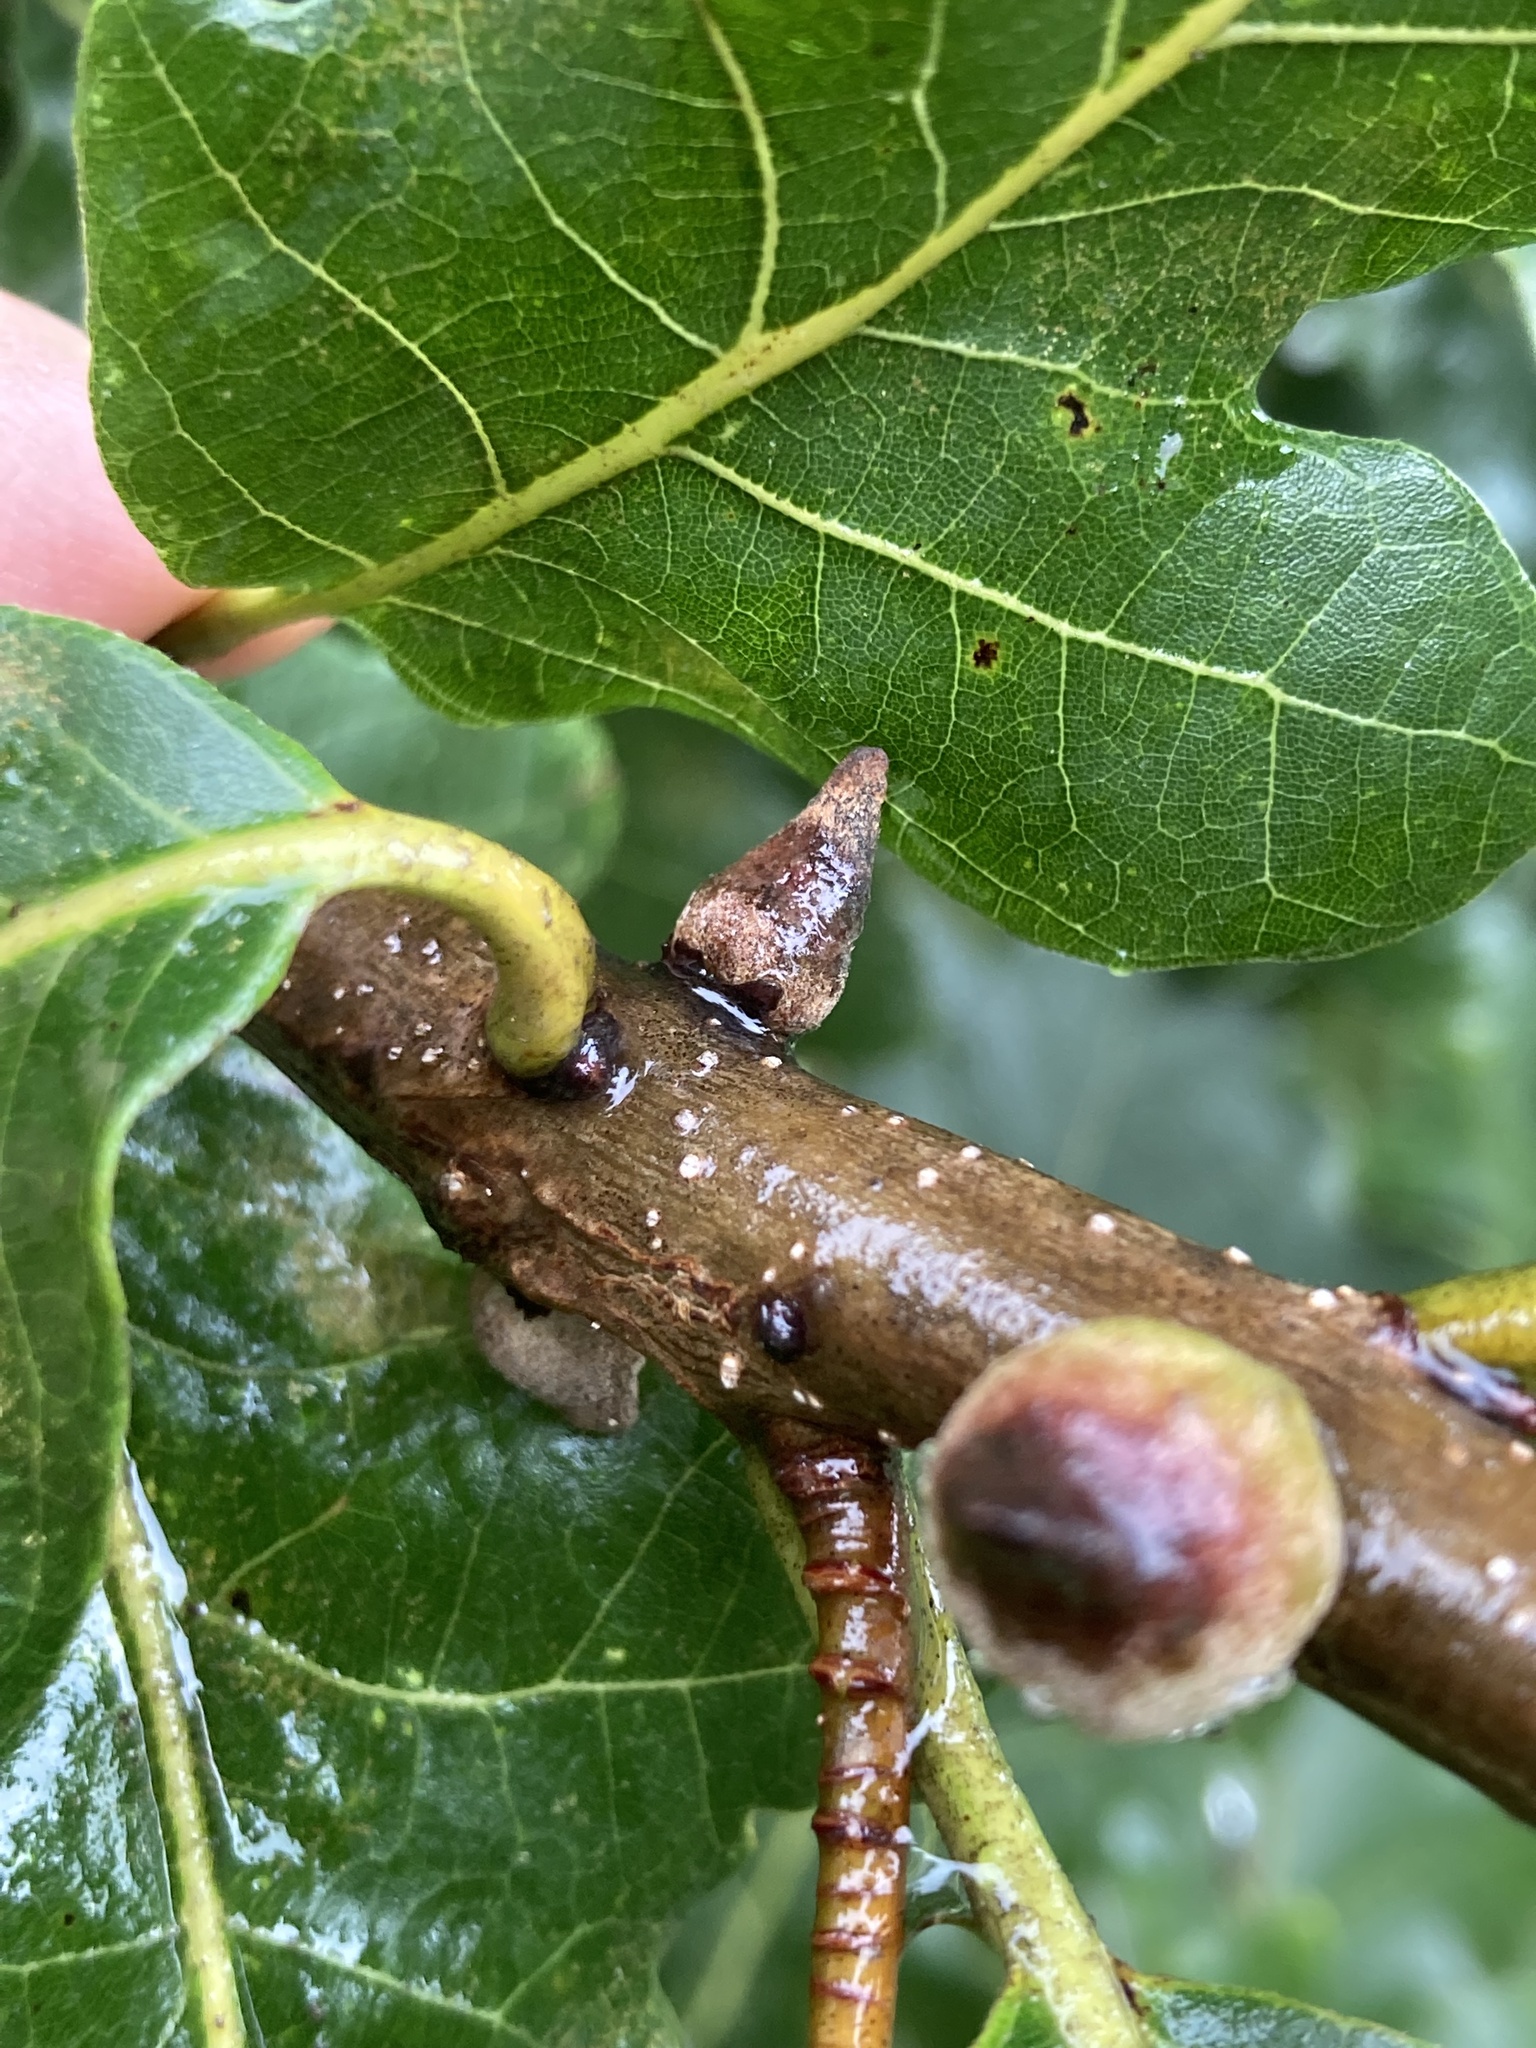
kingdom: Animalia
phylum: Arthropoda
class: Insecta
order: Hymenoptera
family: Cynipidae
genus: Disholcaspis
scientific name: Disholcaspis
